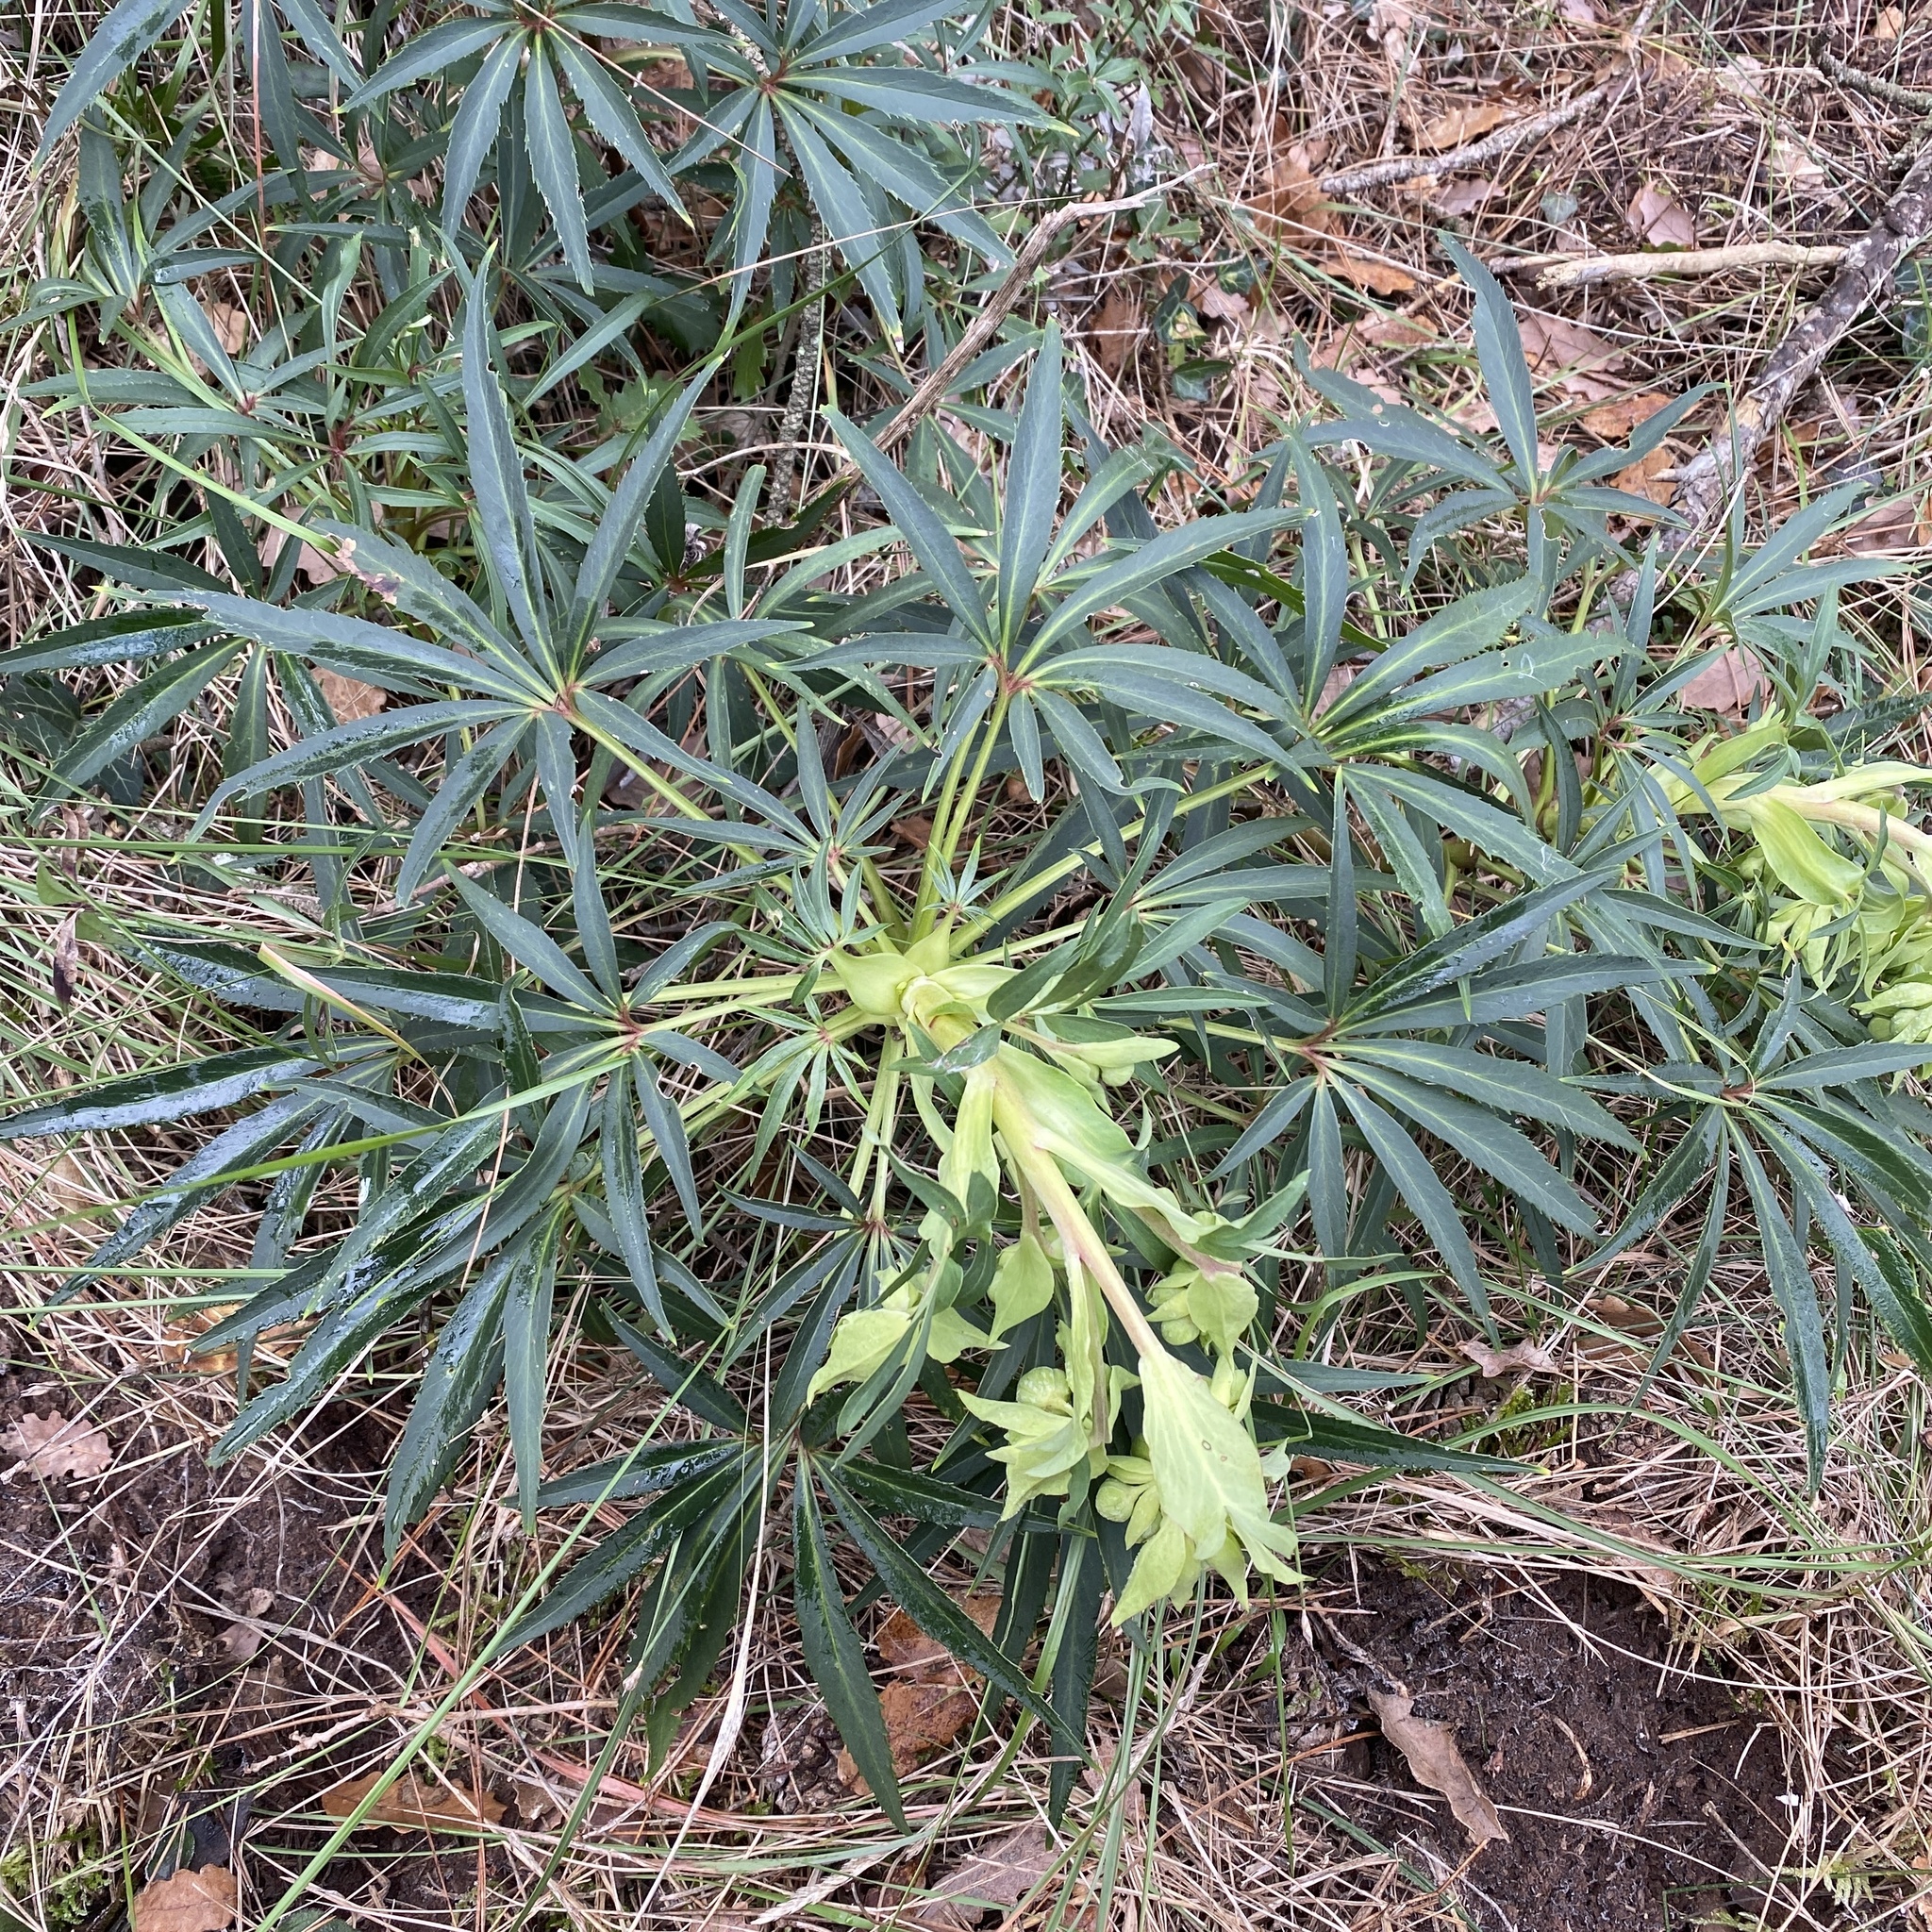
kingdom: Plantae
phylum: Tracheophyta
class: Magnoliopsida
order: Ranunculales
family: Ranunculaceae
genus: Helleborus
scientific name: Helleborus foetidus
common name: Stinking hellebore
